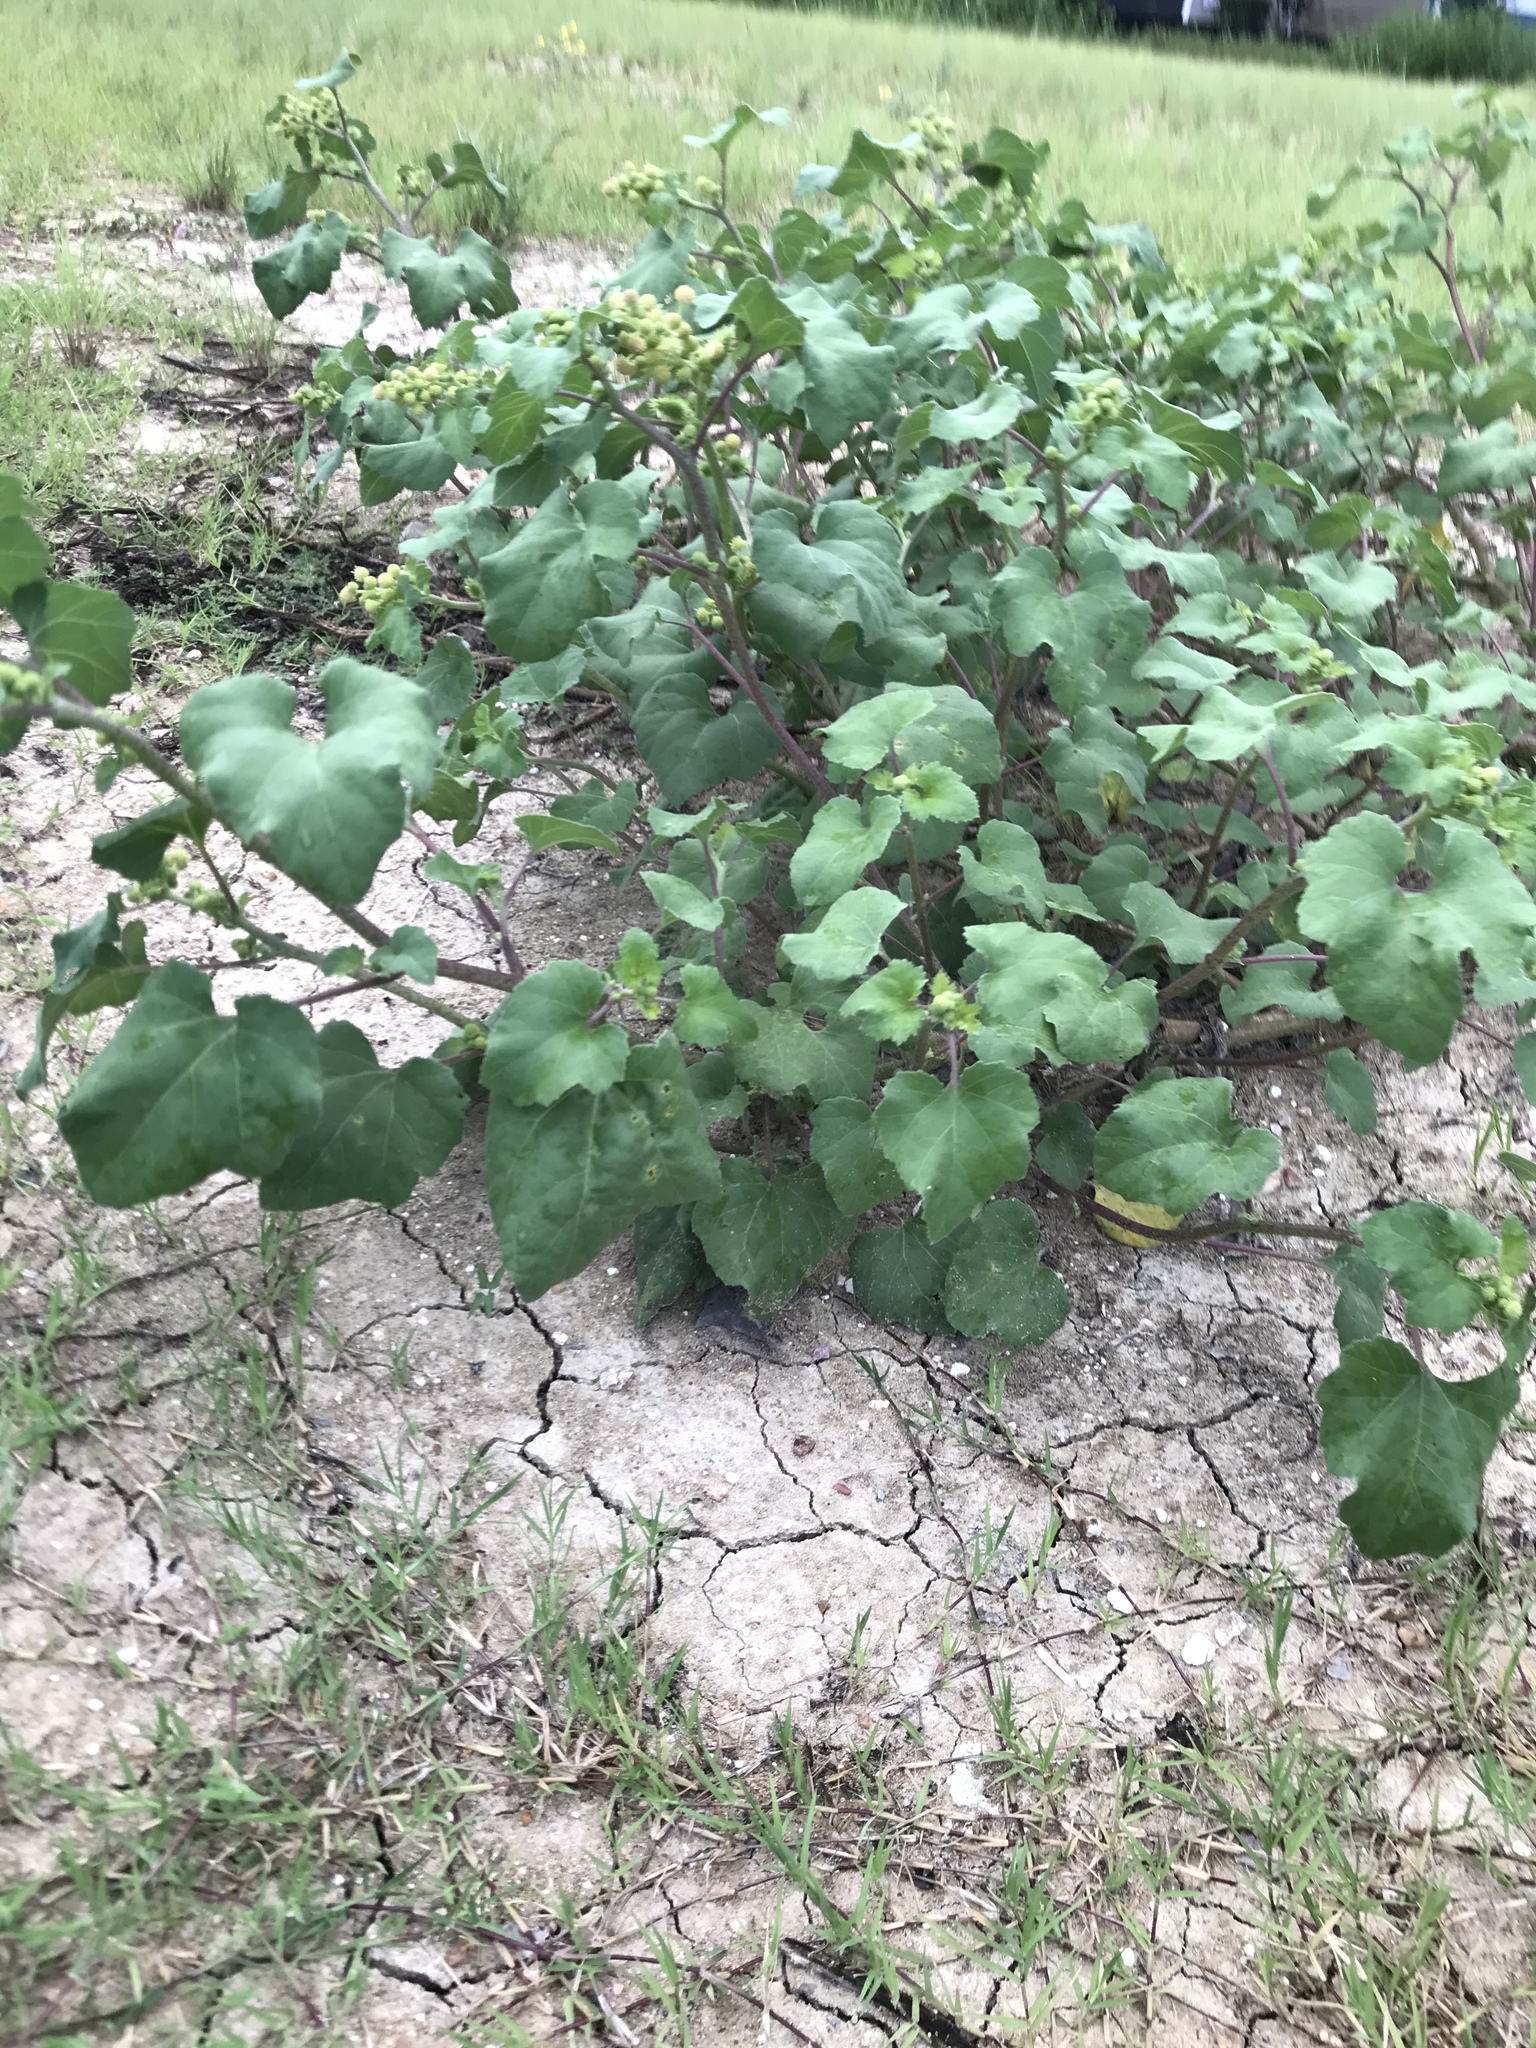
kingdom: Plantae
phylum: Tracheophyta
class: Magnoliopsida
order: Asterales
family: Asteraceae
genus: Xanthium
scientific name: Xanthium strumarium
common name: Rough cocklebur
